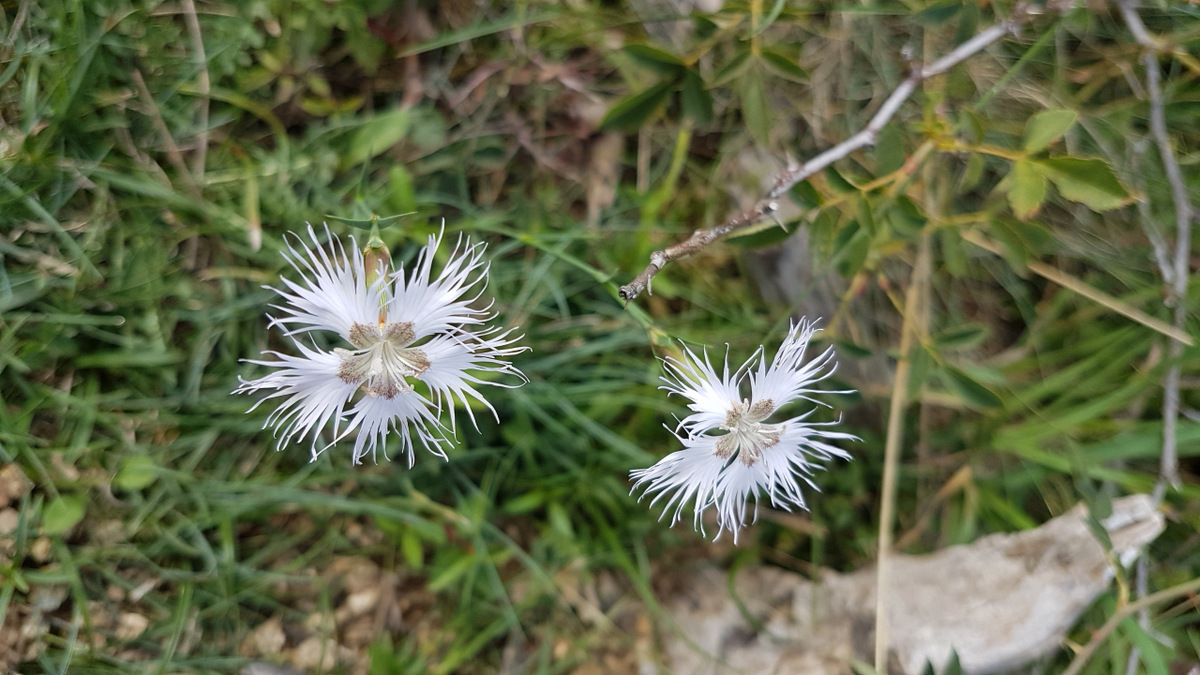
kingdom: Plantae
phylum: Tracheophyta
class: Magnoliopsida
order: Caryophyllales
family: Caryophyllaceae
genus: Dianthus
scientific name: Dianthus hyssopifolius
